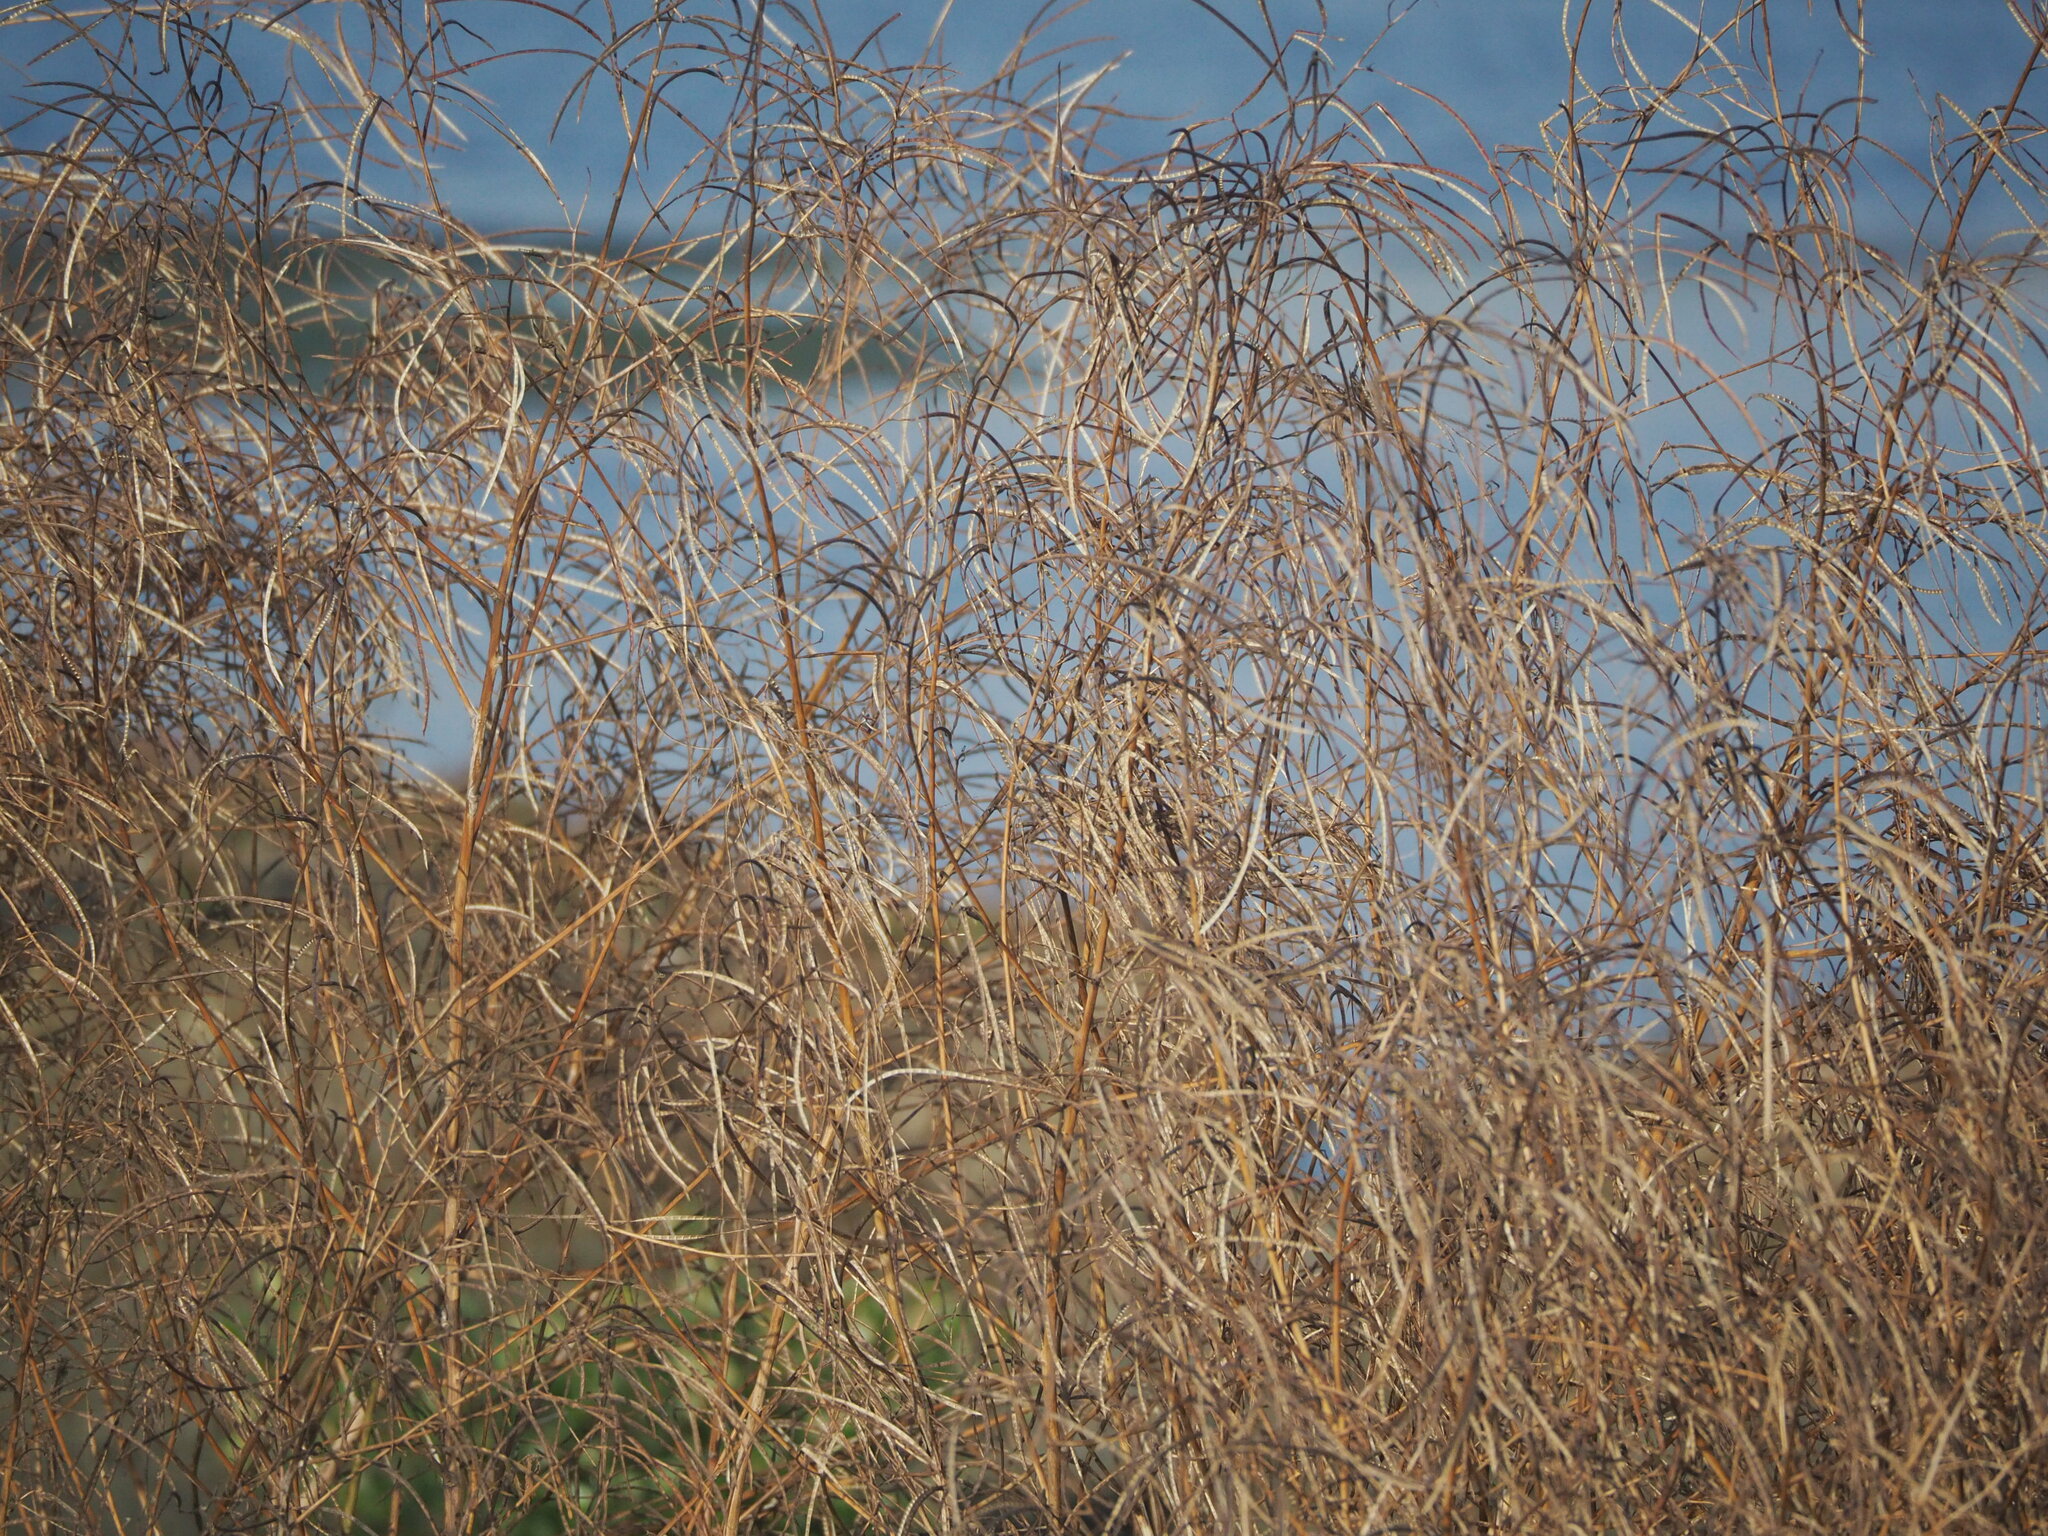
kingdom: Plantae
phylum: Tracheophyta
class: Magnoliopsida
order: Fabales
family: Fabaceae
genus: Sesbania
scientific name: Sesbania cannabina
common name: Canicha
